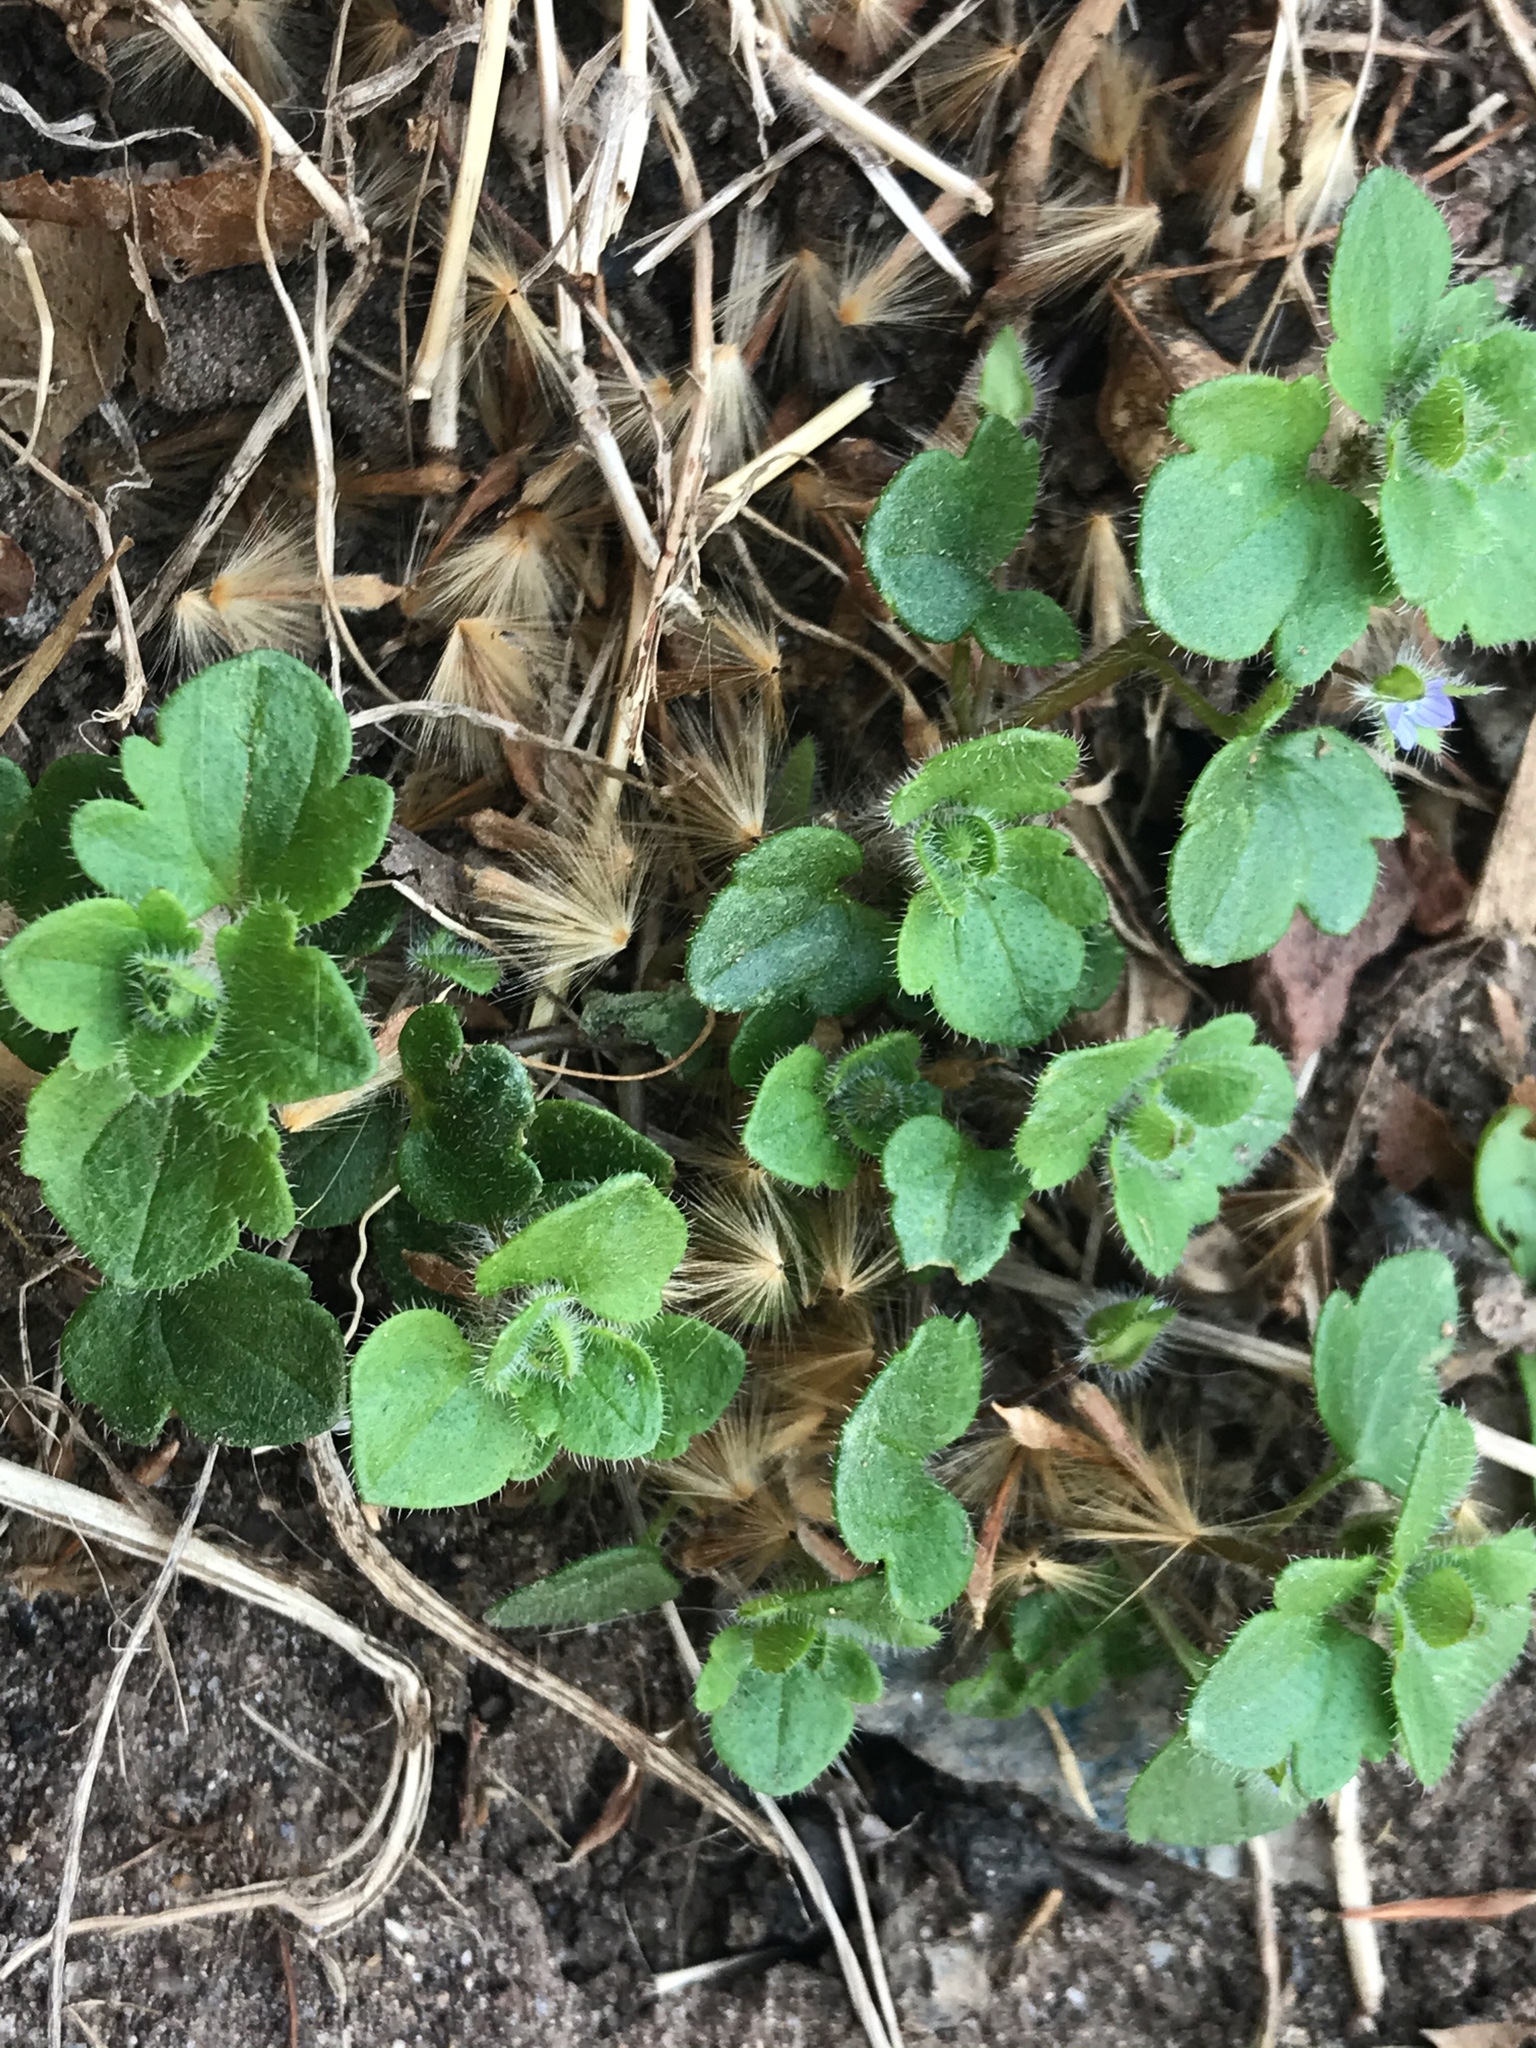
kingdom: Plantae
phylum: Tracheophyta
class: Magnoliopsida
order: Lamiales
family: Plantaginaceae
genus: Veronica
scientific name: Veronica hederifolia
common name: Ivy-leaved speedwell
